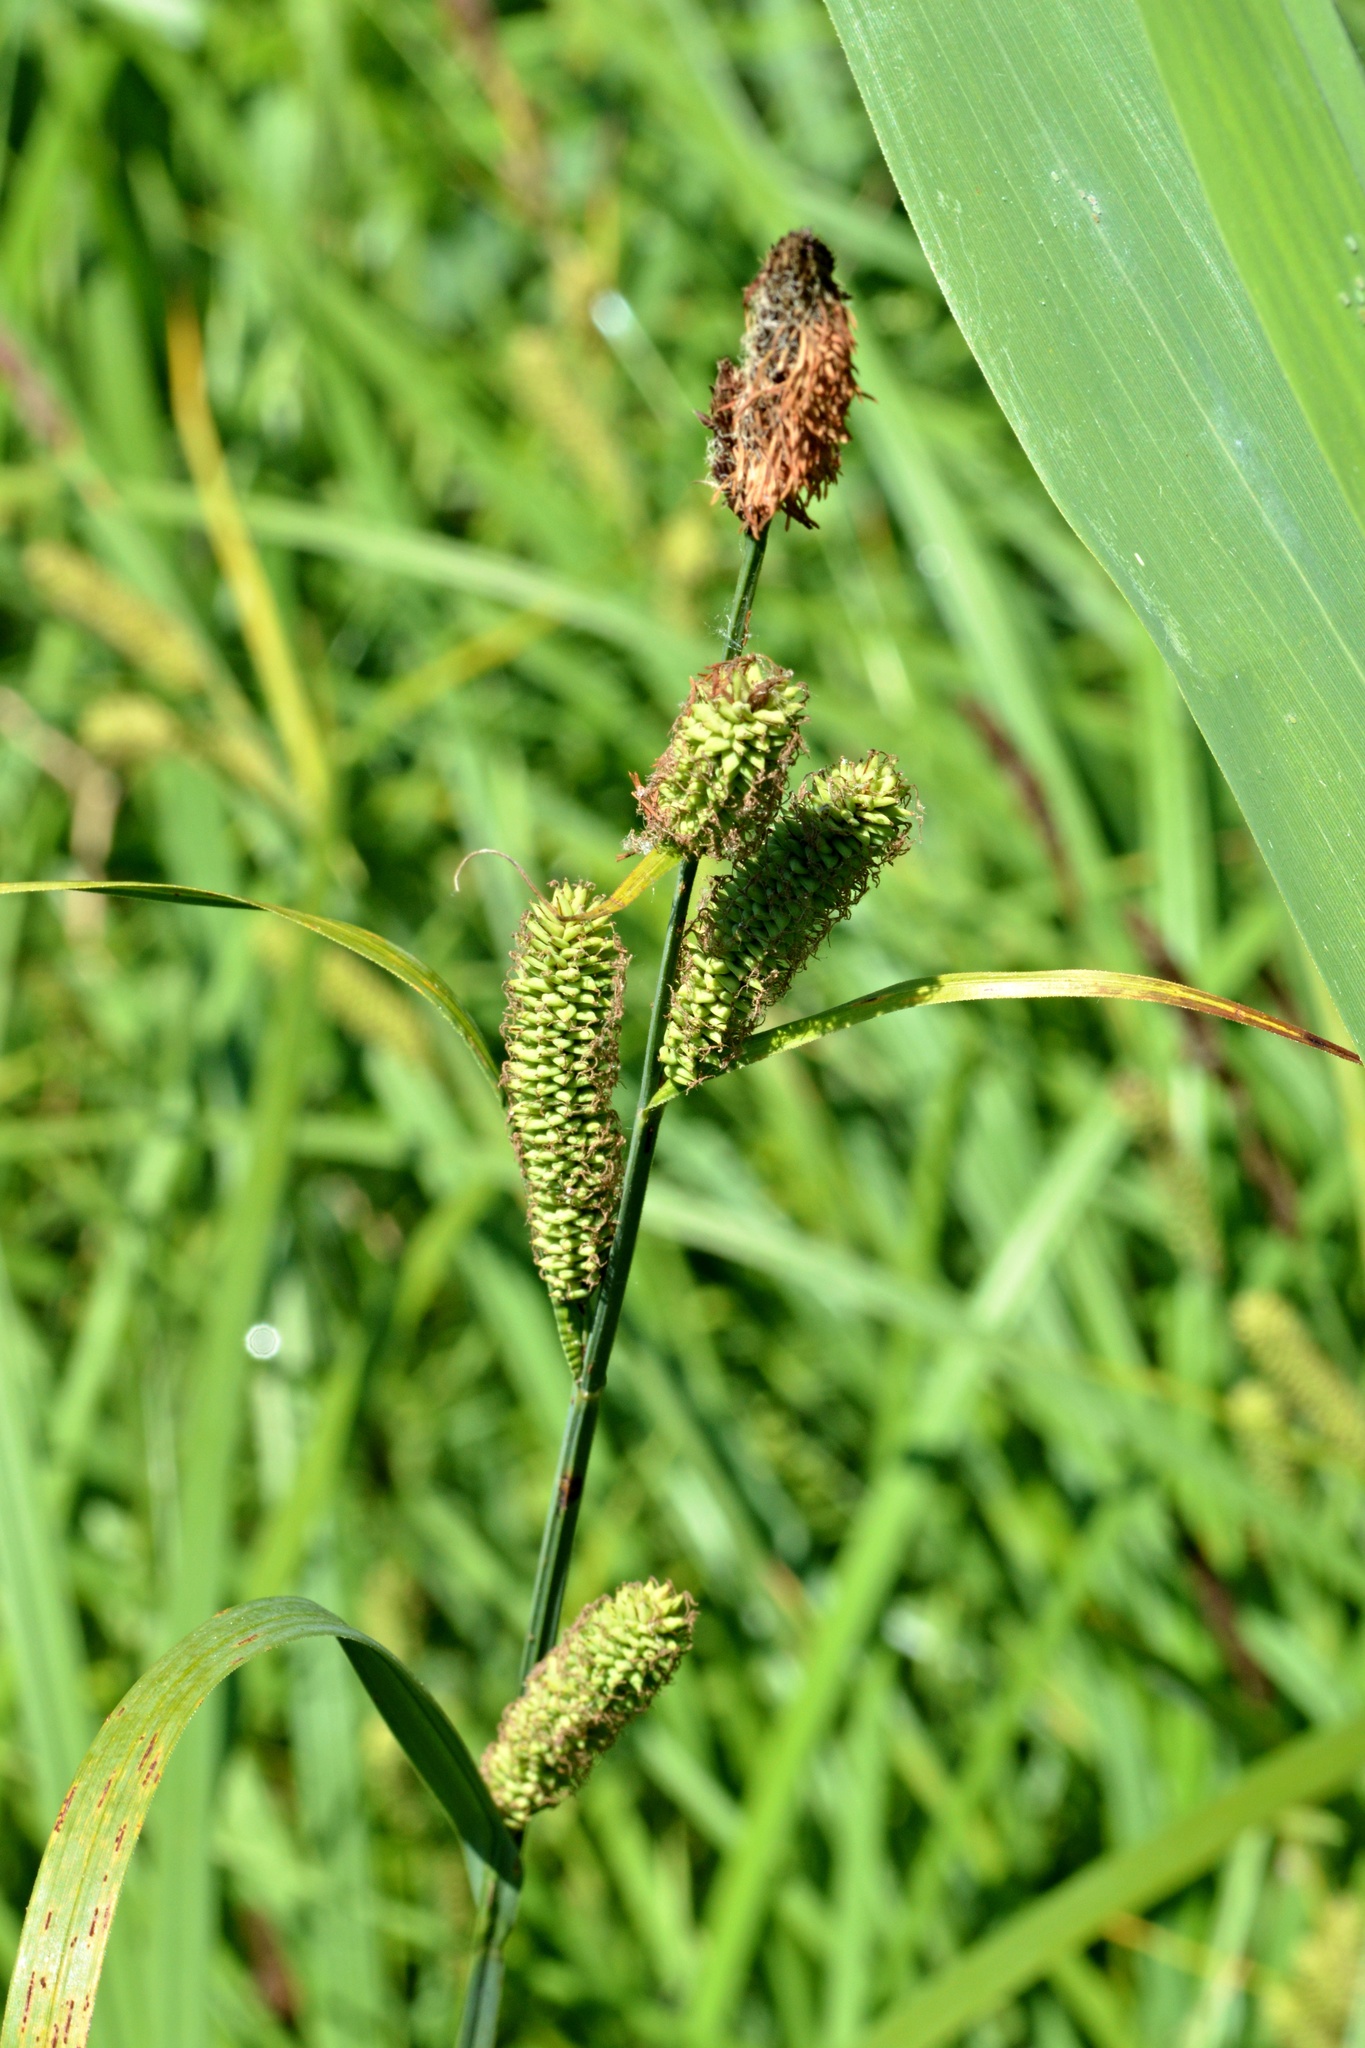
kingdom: Plantae
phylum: Tracheophyta
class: Liliopsida
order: Poales
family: Cyperaceae
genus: Carex
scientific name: Carex riparia
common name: Greater pond-sedge
